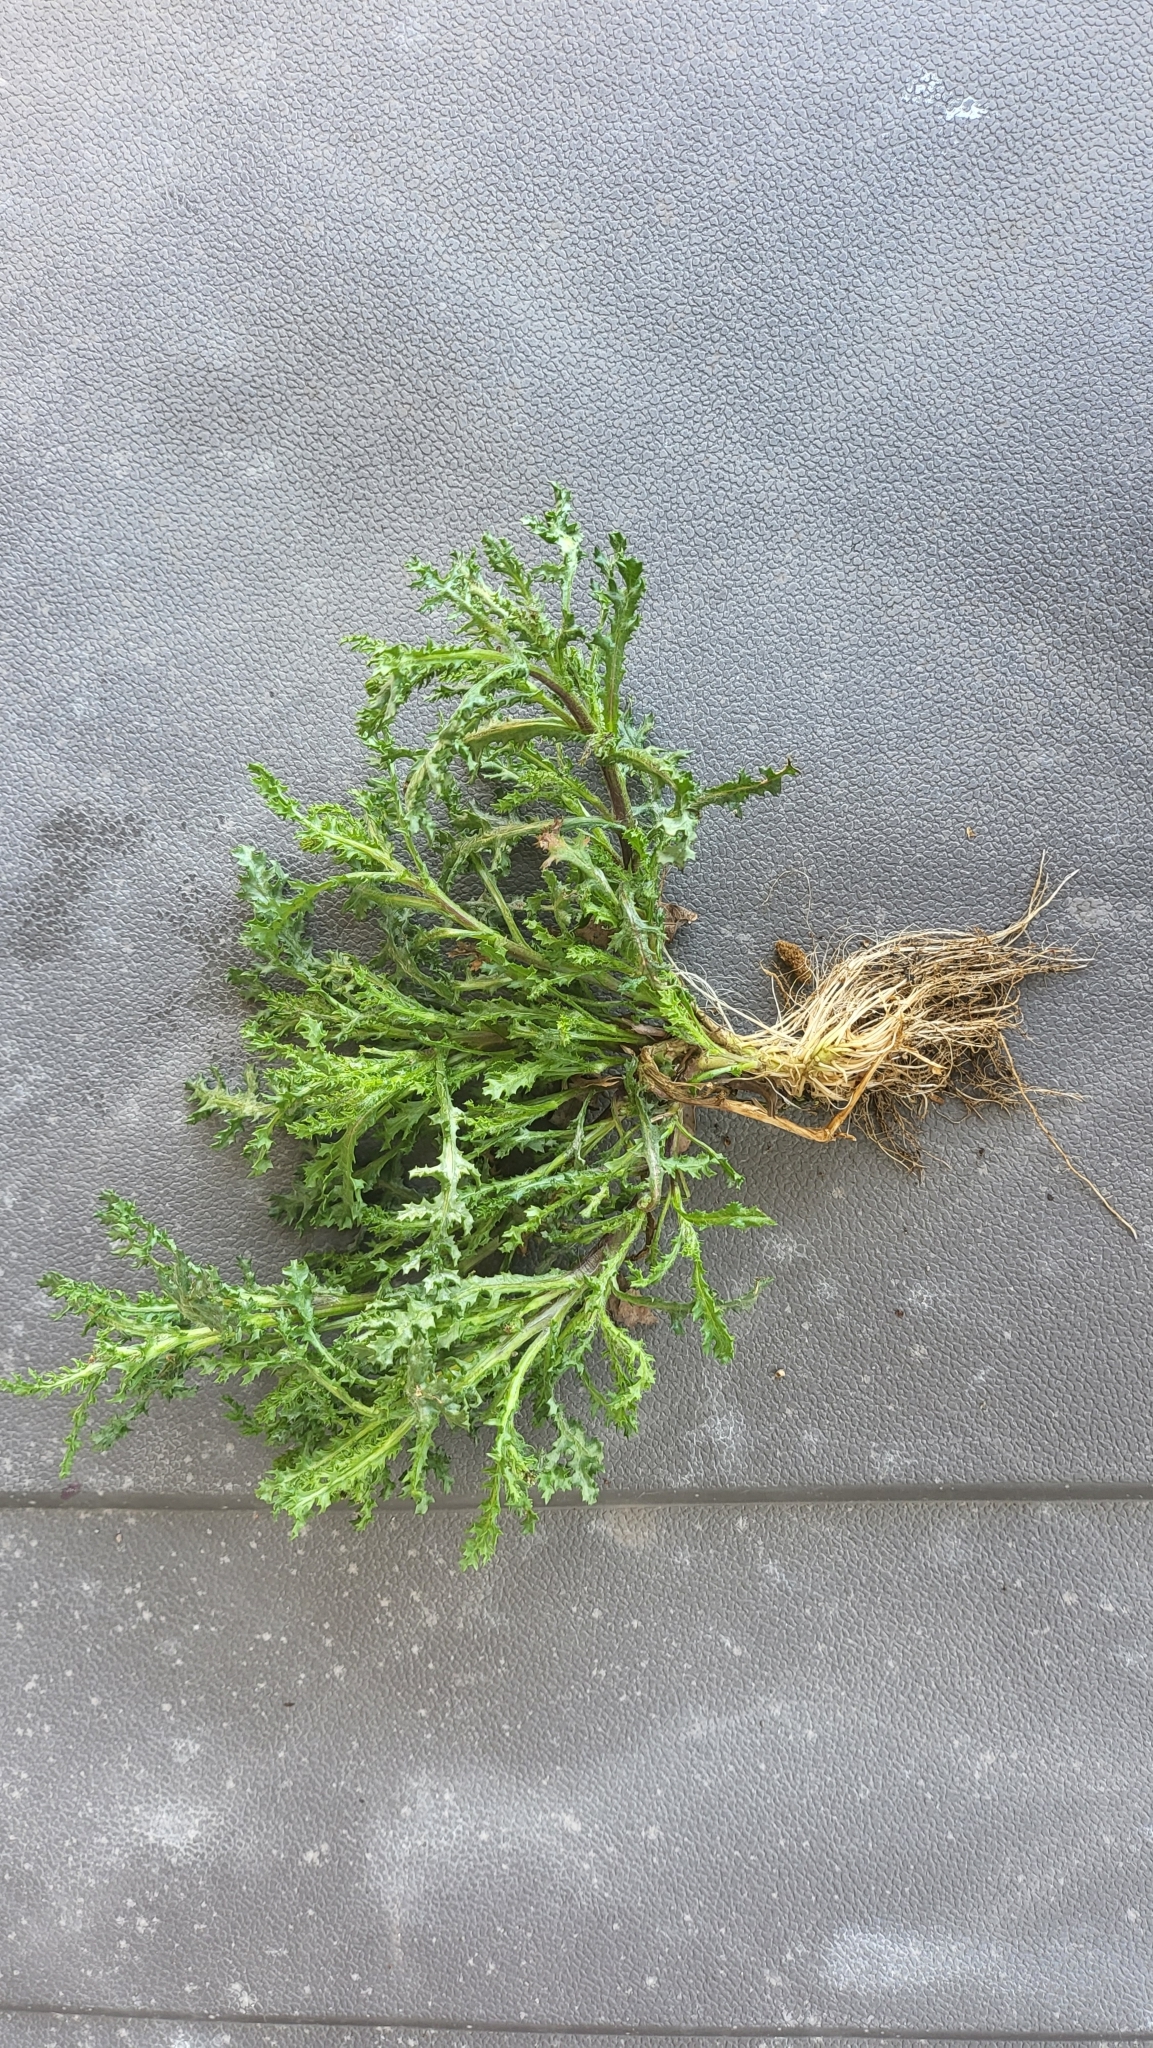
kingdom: Plantae
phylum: Tracheophyta
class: Magnoliopsida
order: Asterales
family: Asteraceae
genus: Senecio
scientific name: Senecio vulgaris
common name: Old-man-in-the-spring
